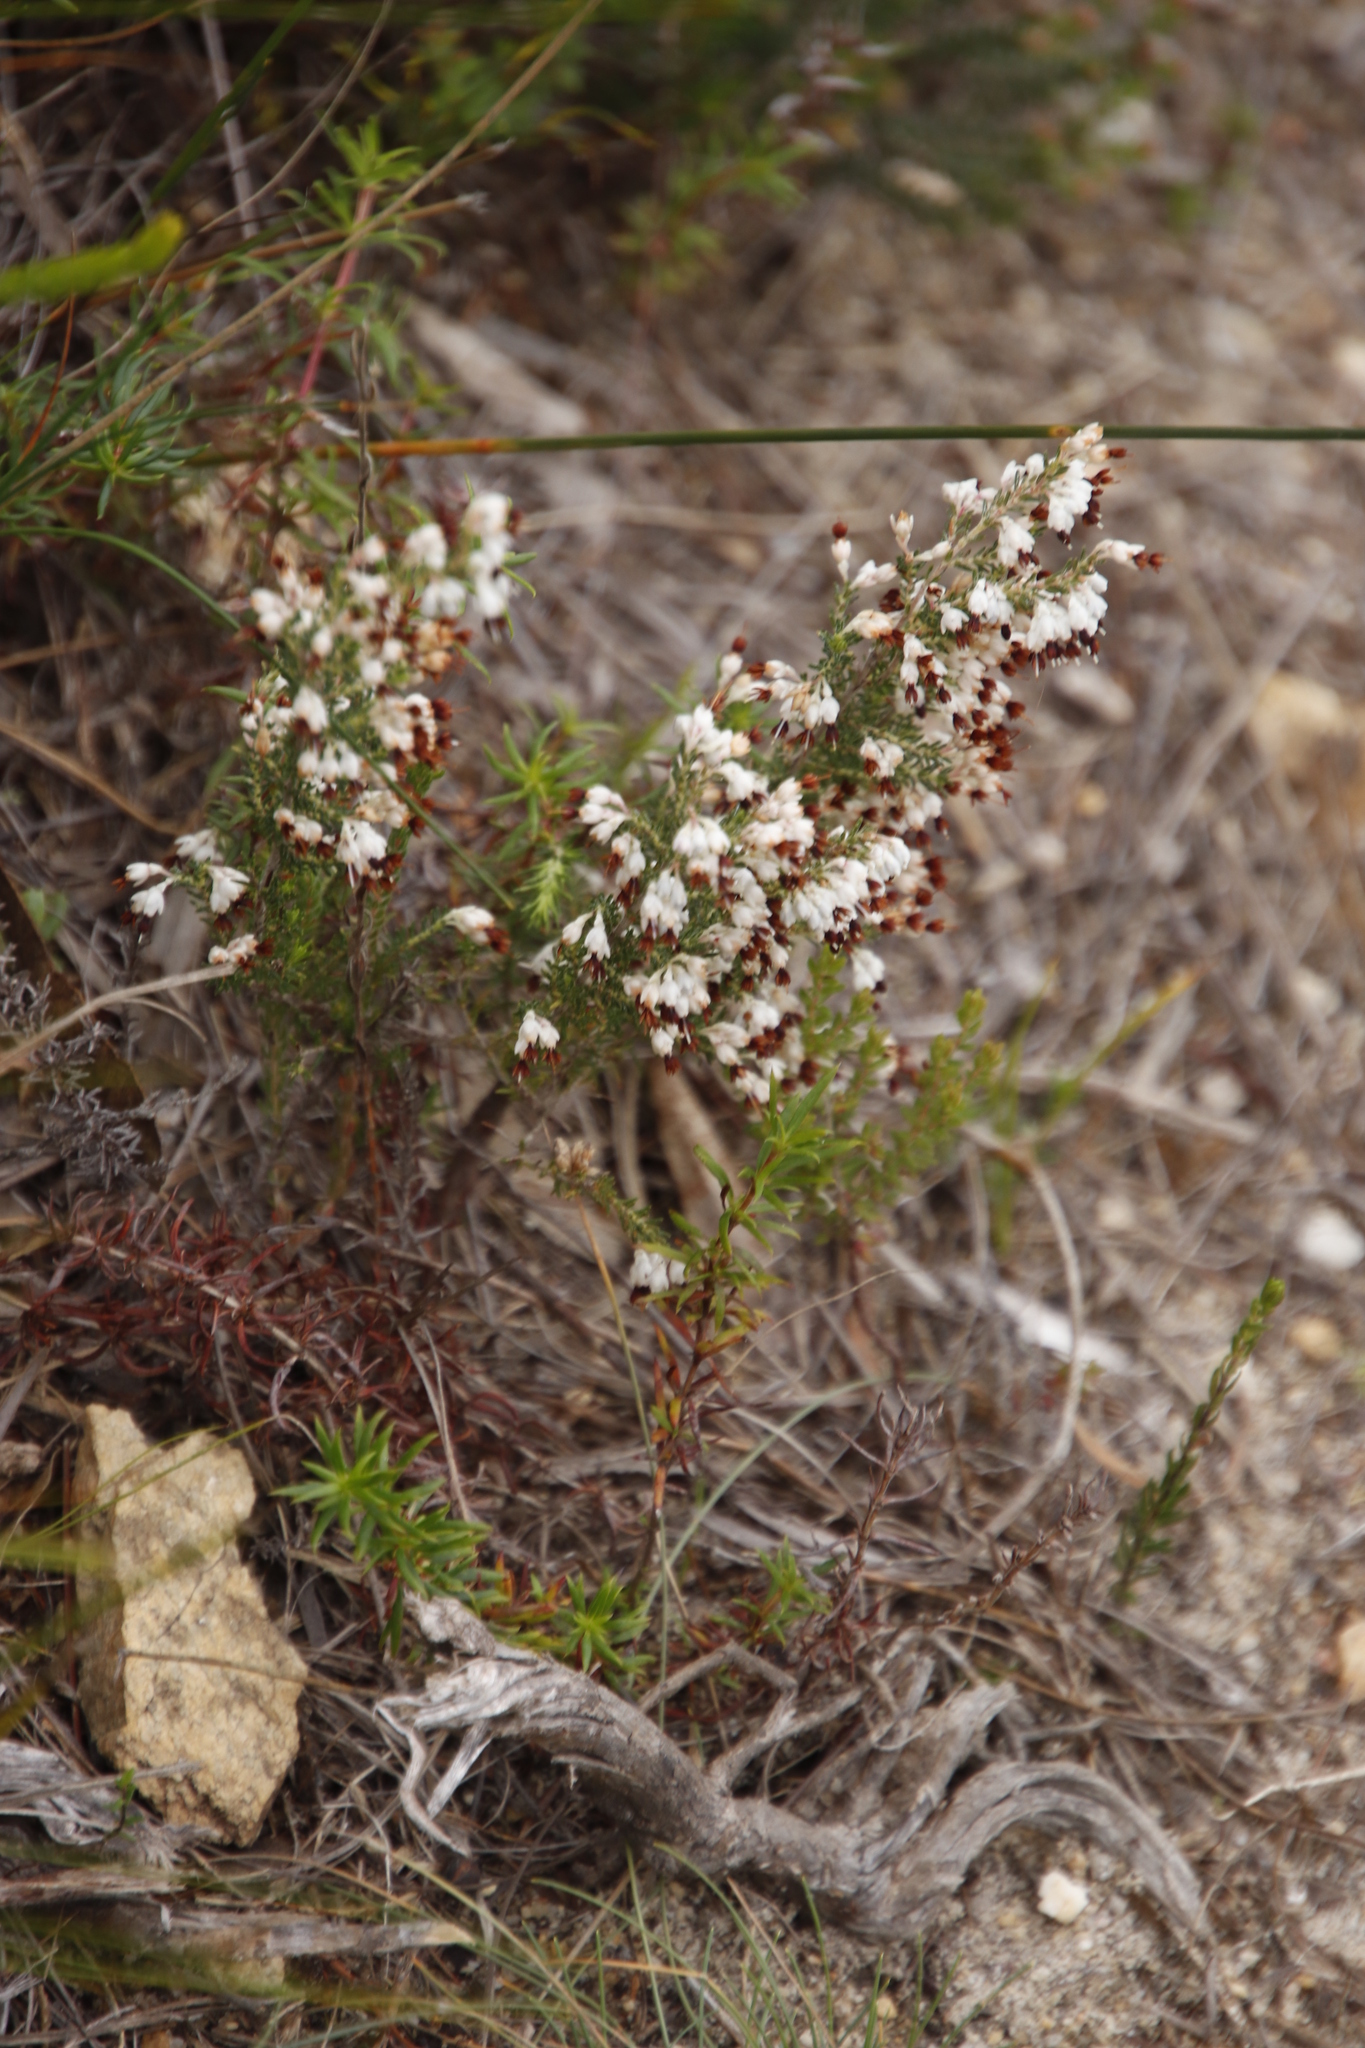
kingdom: Plantae
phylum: Tracheophyta
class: Magnoliopsida
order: Ericales
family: Ericaceae
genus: Erica
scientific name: Erica imbricata
